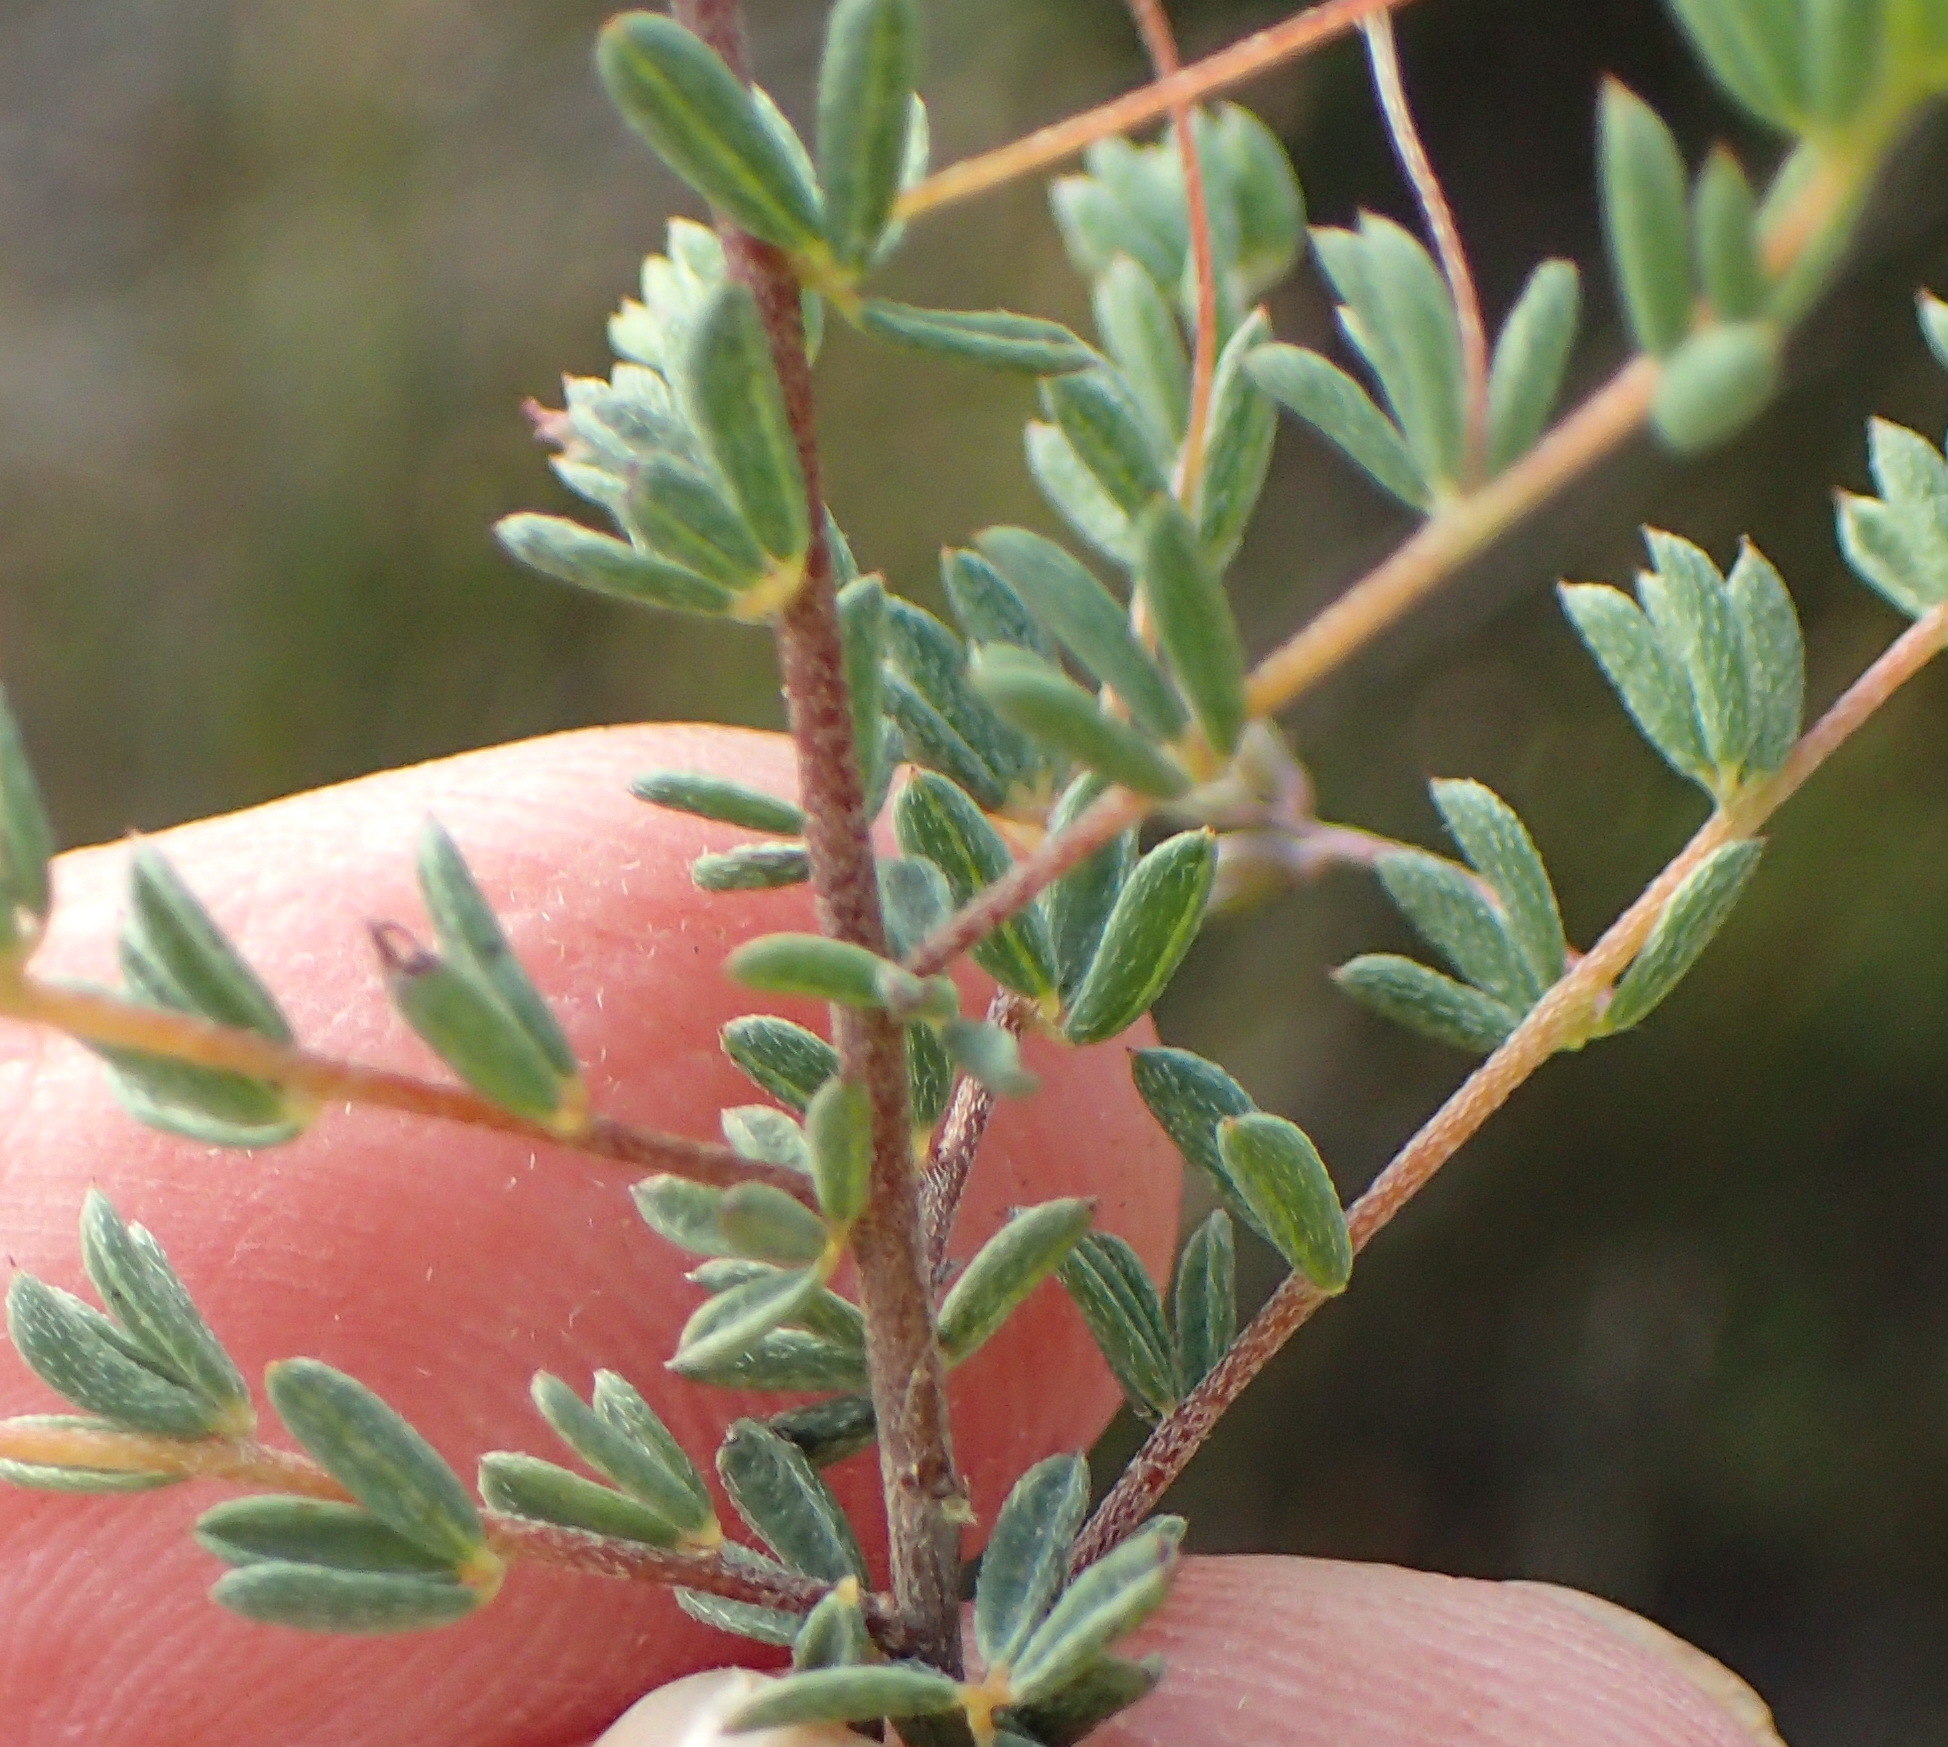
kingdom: Plantae
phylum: Tracheophyta
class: Magnoliopsida
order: Fabales
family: Fabaceae
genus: Indigofera
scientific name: Indigofera dillwynioides
